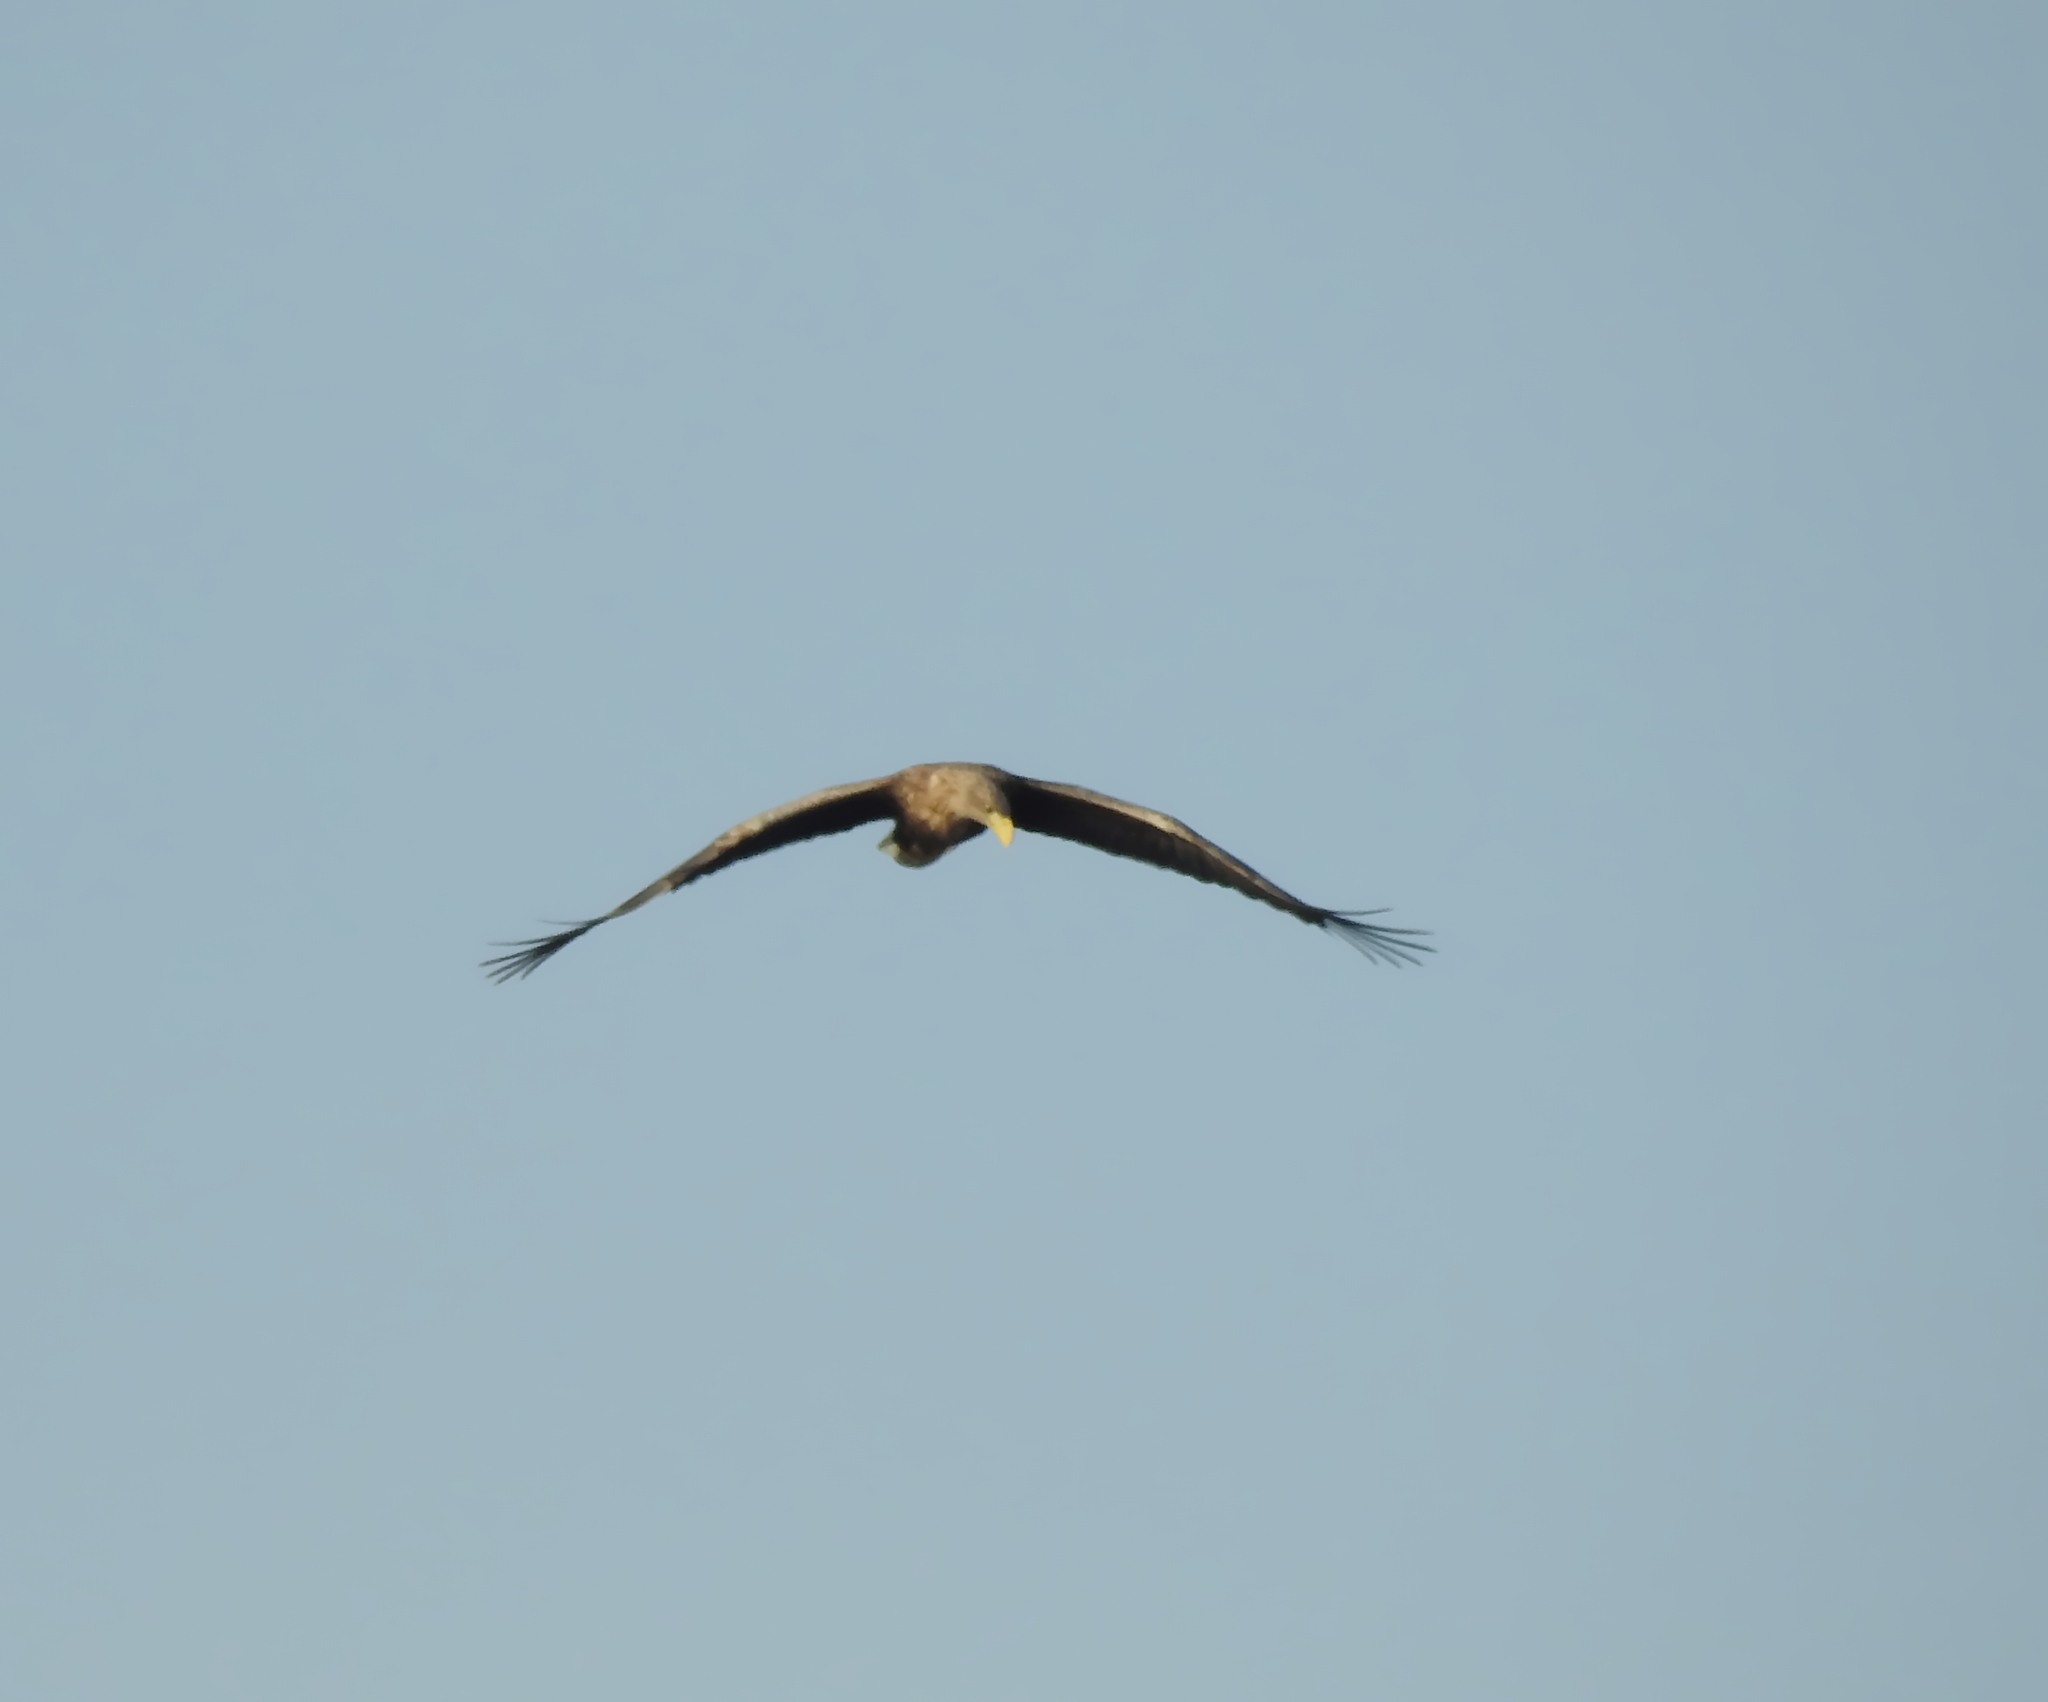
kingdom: Animalia
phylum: Chordata
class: Aves
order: Accipitriformes
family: Accipitridae
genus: Haliaeetus
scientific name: Haliaeetus albicilla
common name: White-tailed eagle
